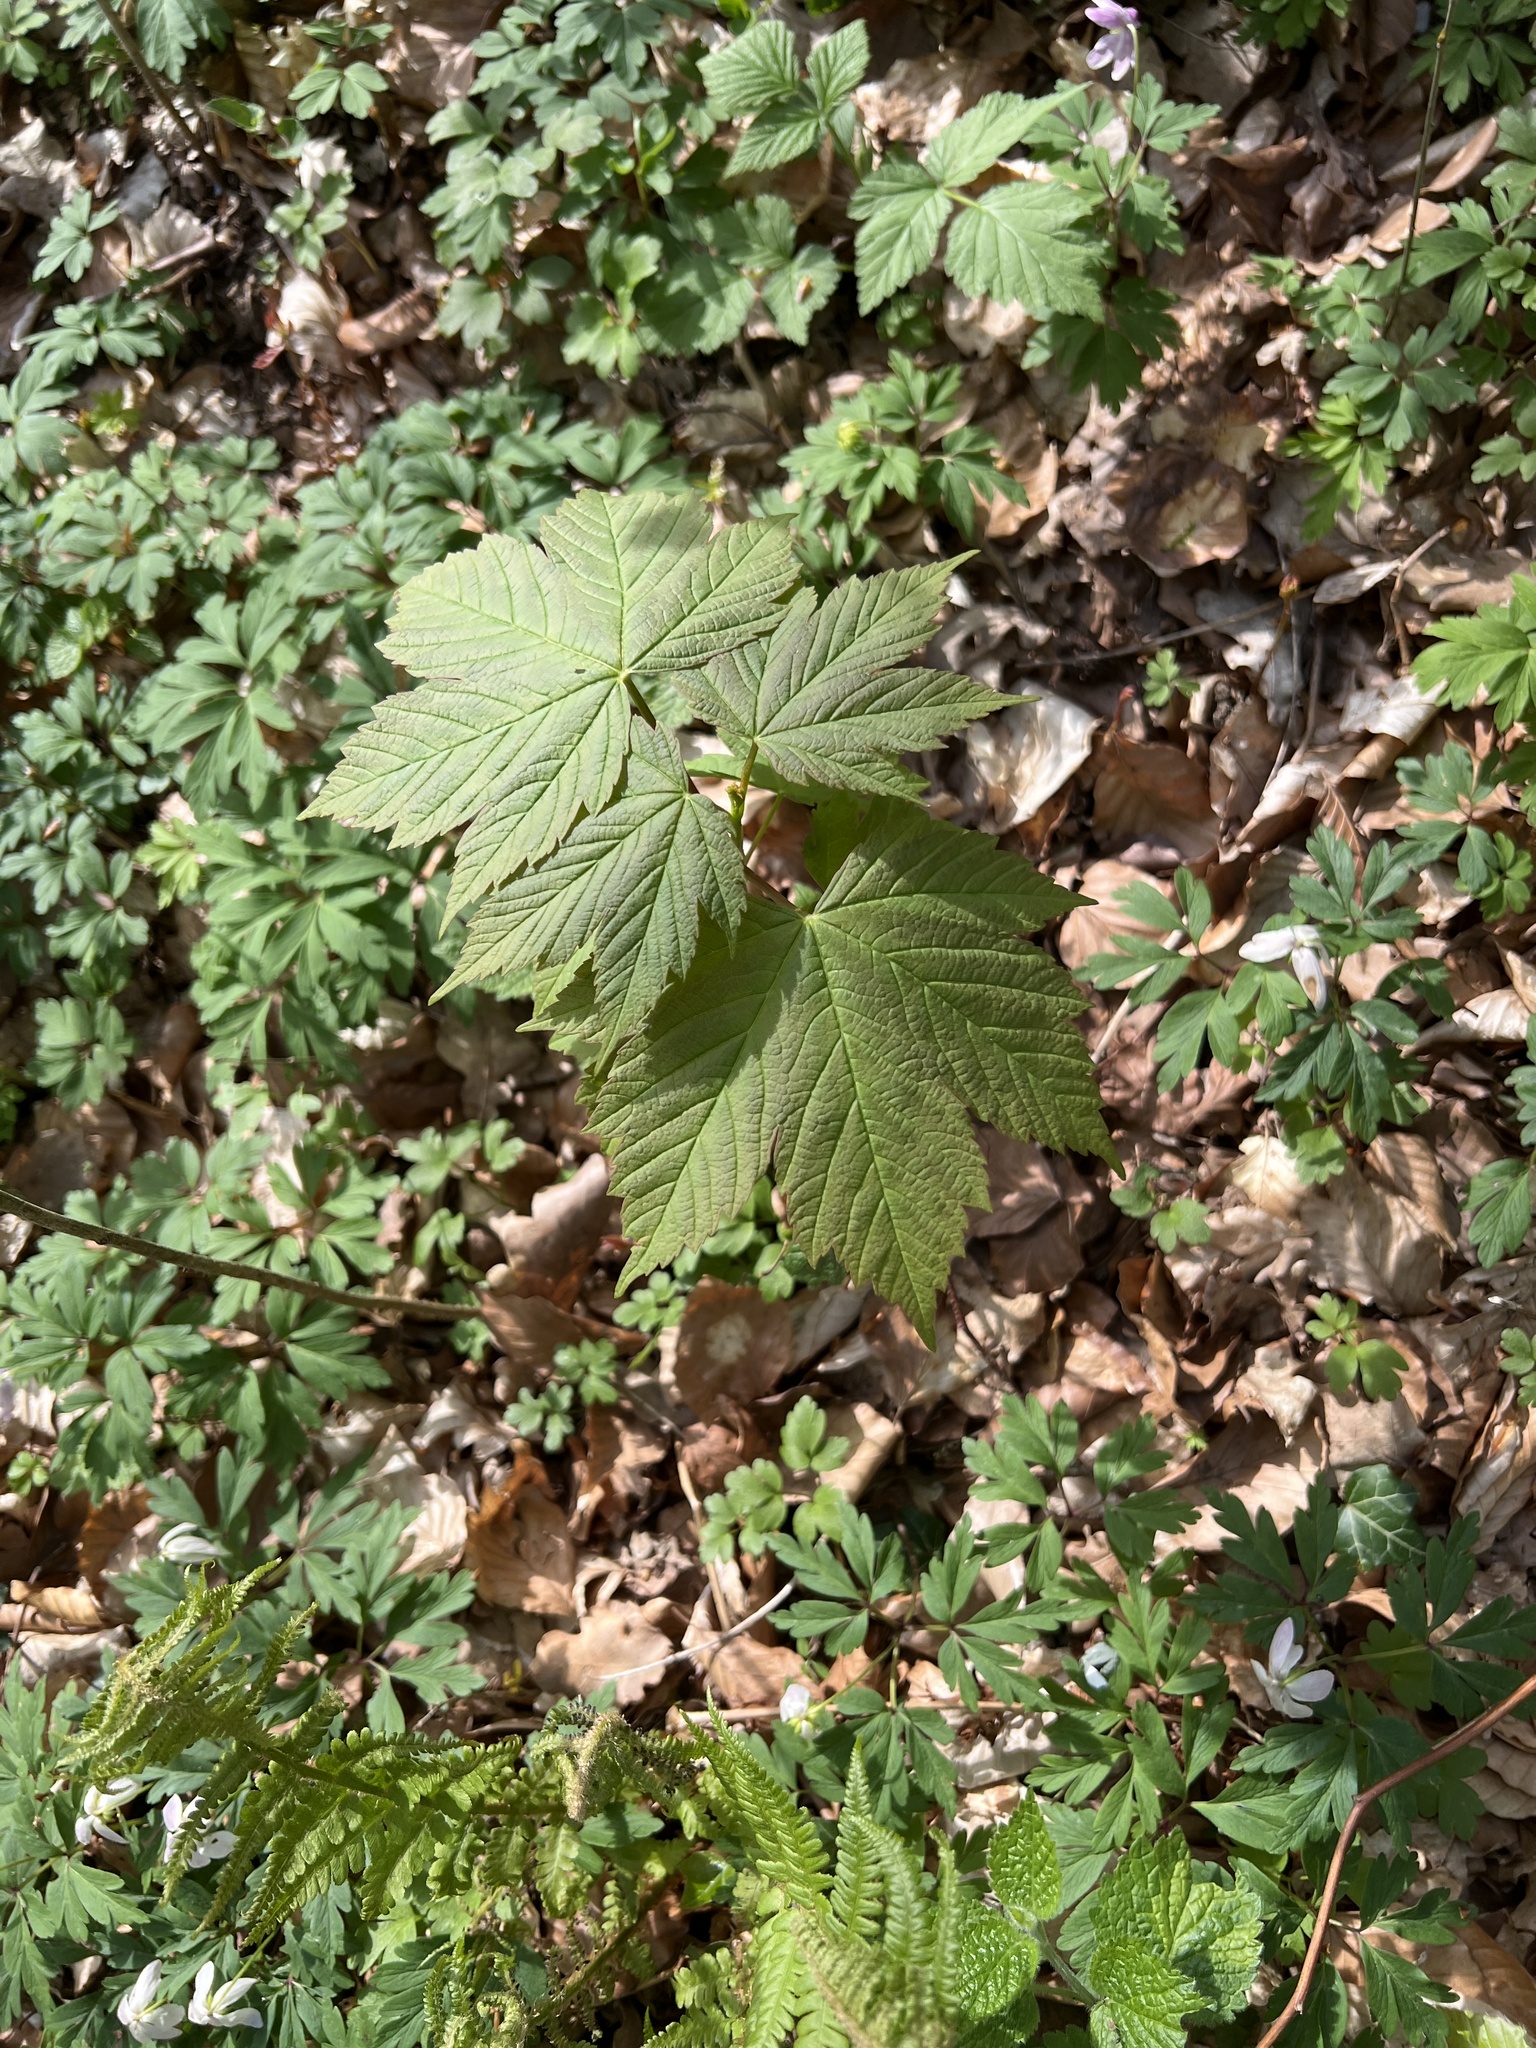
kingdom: Plantae
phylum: Tracheophyta
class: Magnoliopsida
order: Sapindales
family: Sapindaceae
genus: Acer
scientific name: Acer pseudoplatanus
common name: Sycamore
